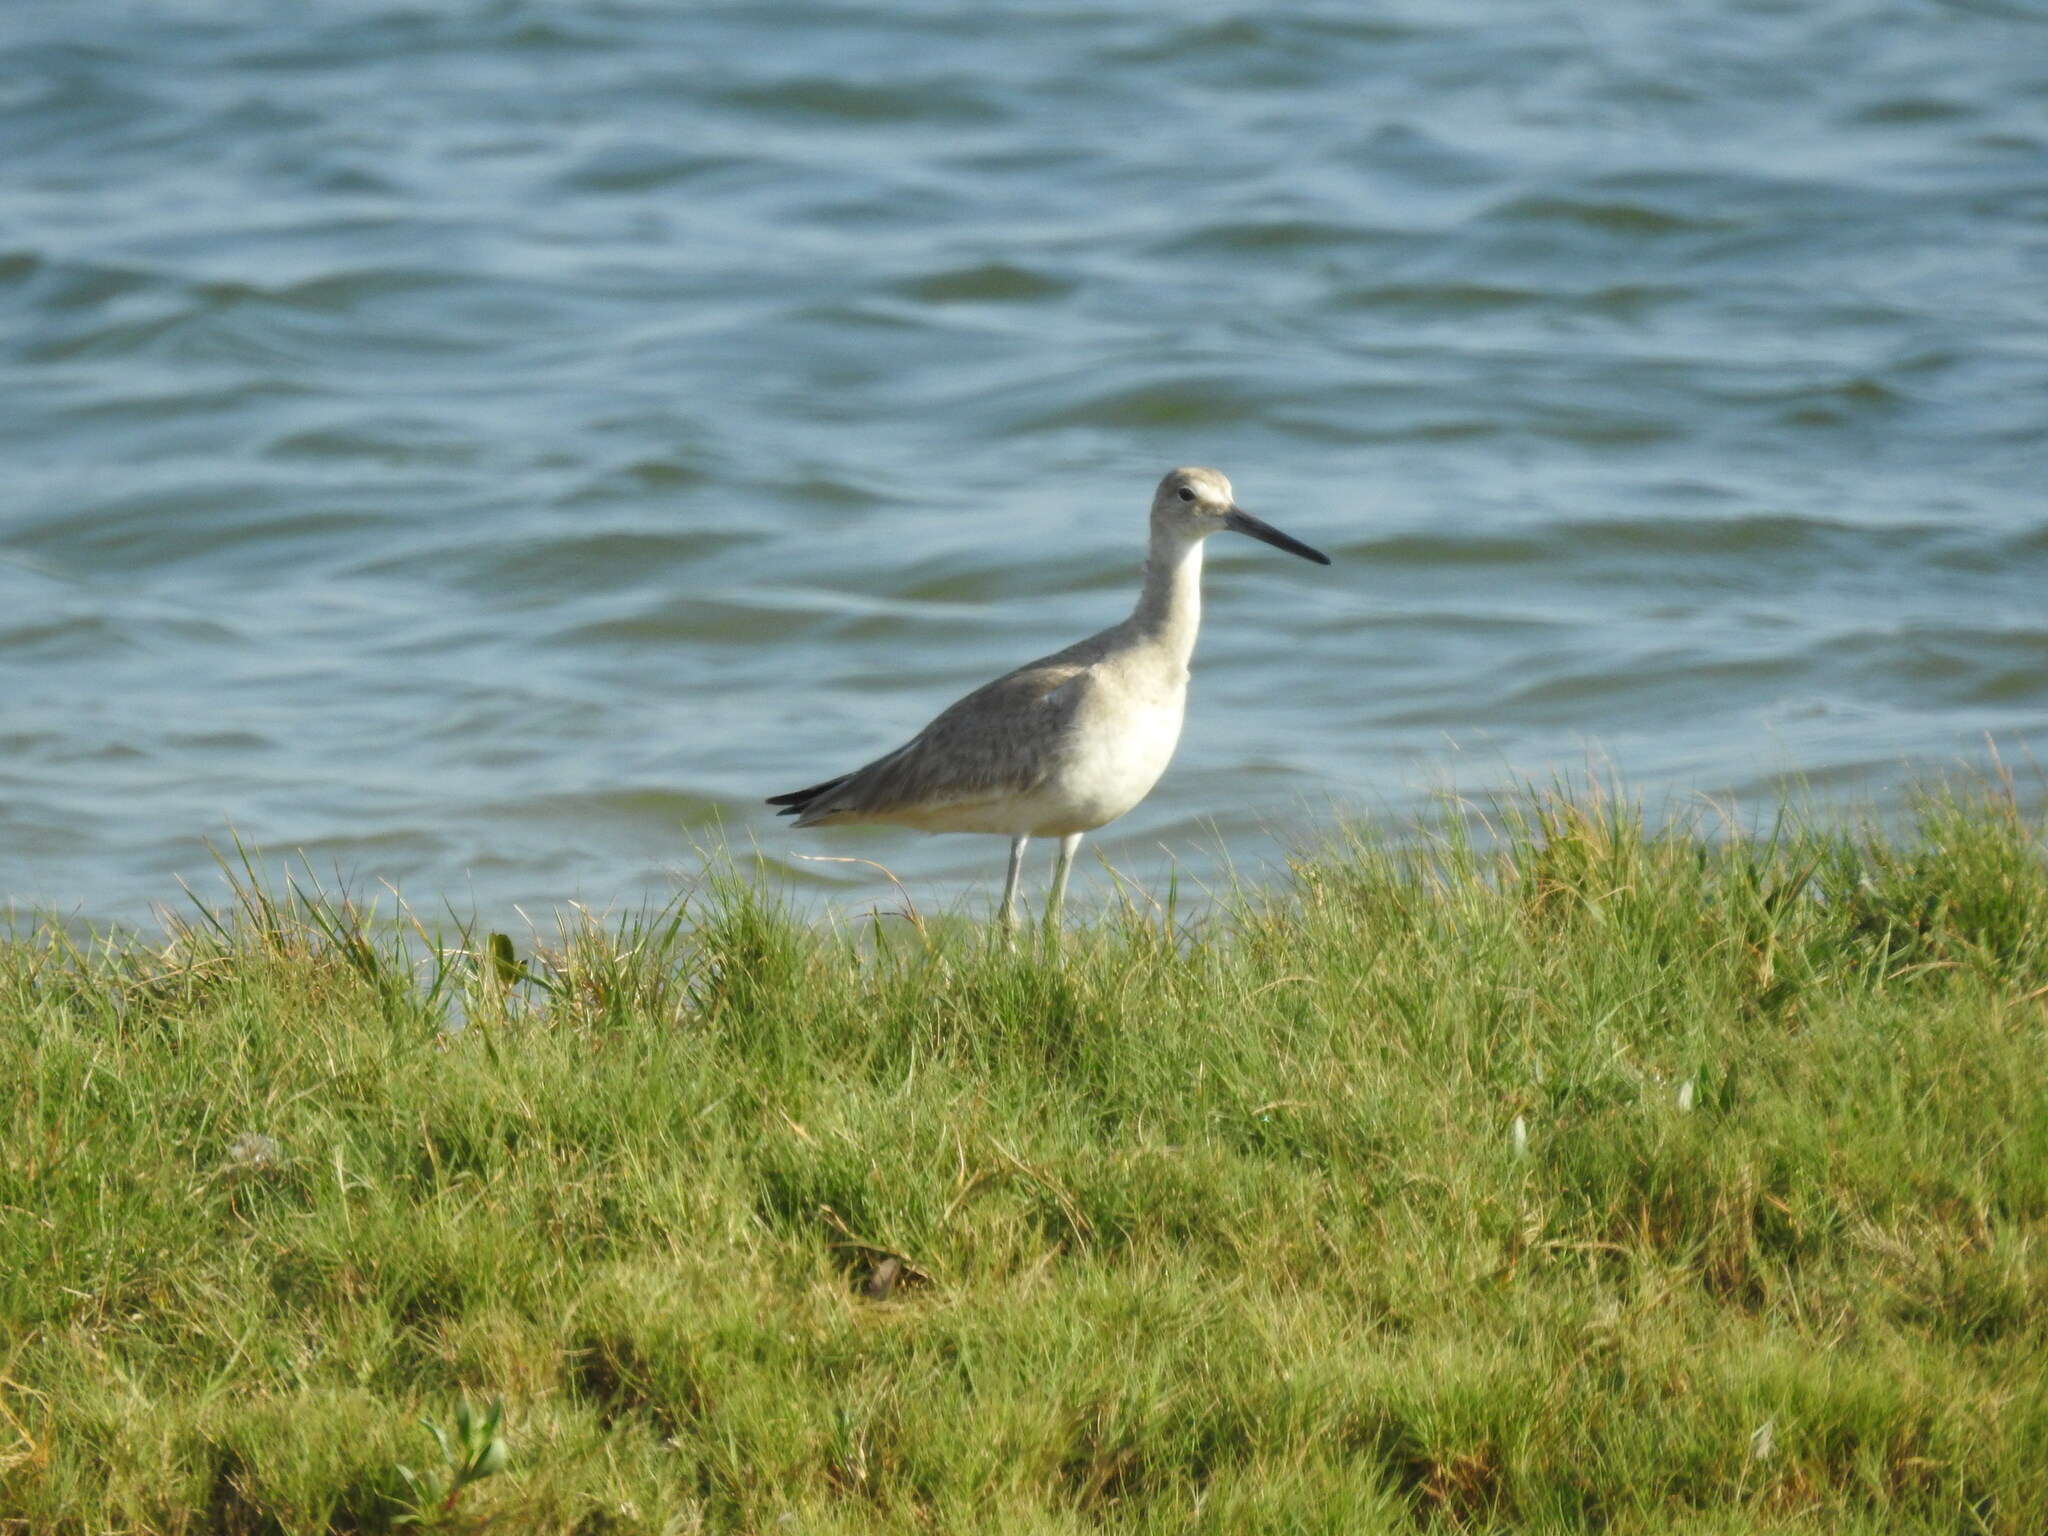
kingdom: Animalia
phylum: Chordata
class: Aves
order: Charadriiformes
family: Scolopacidae
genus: Tringa
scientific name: Tringa semipalmata
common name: Willet
